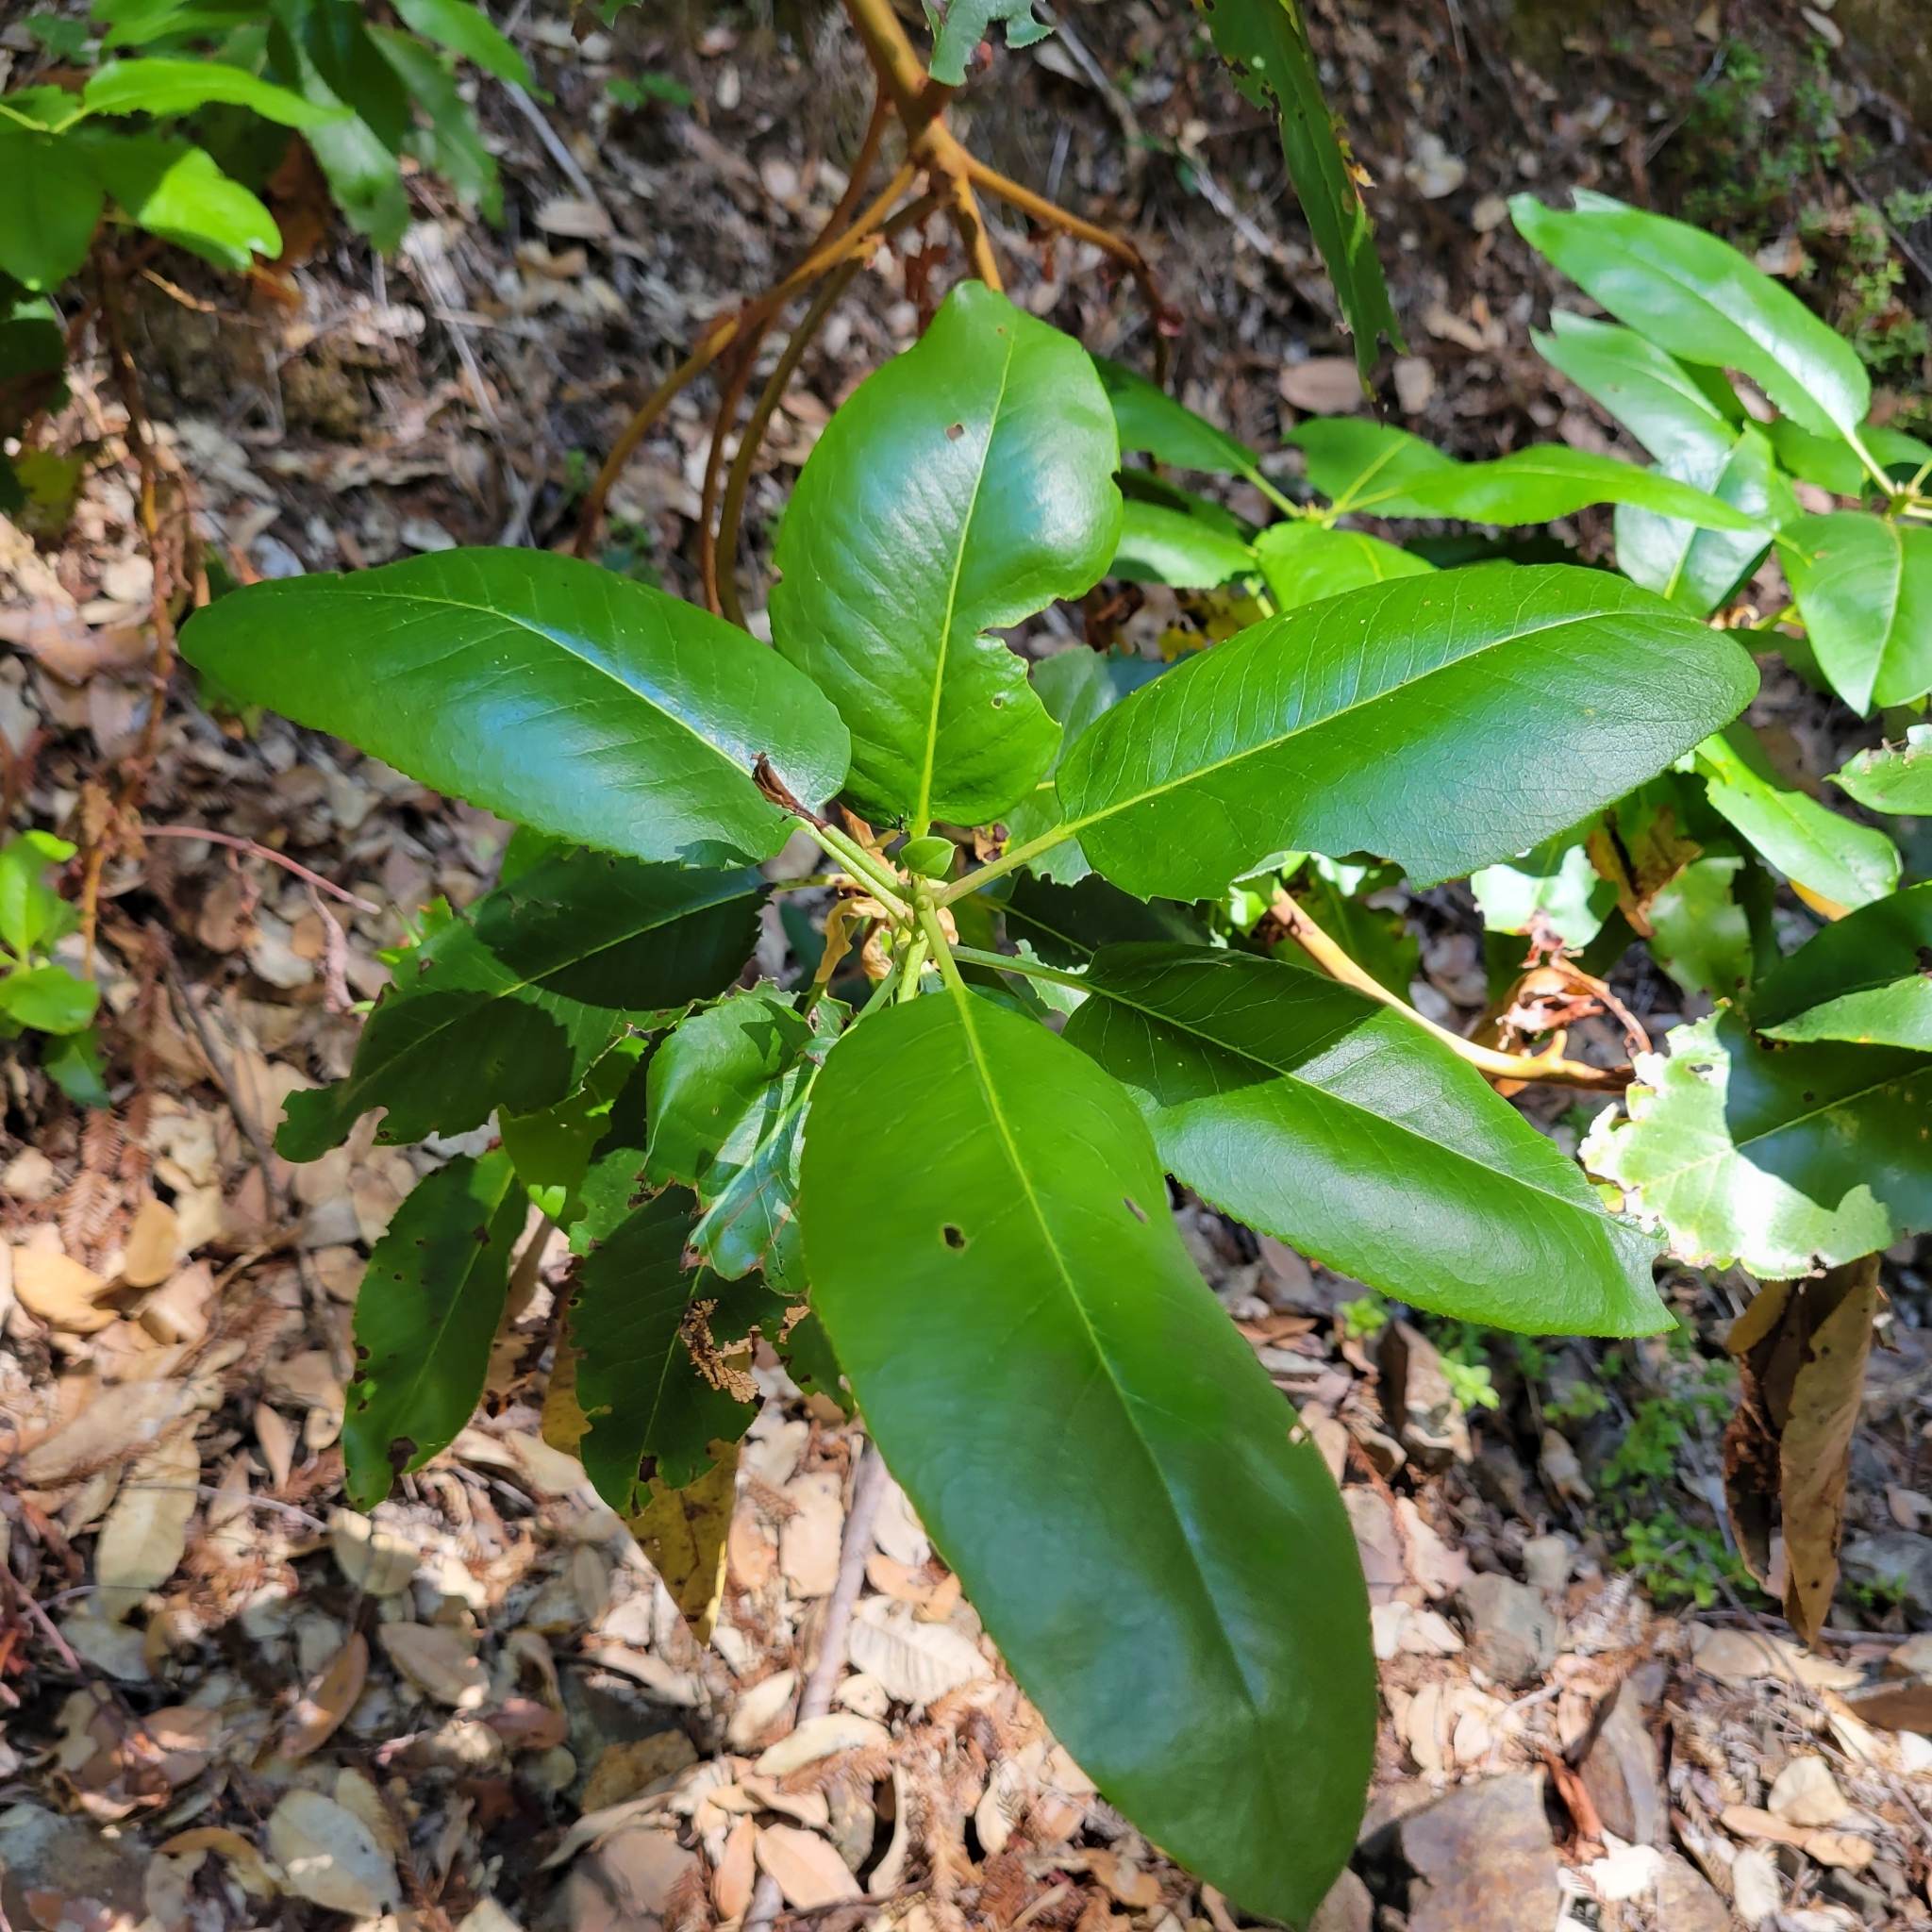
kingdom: Plantae
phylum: Tracheophyta
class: Magnoliopsida
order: Ericales
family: Ericaceae
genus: Arbutus
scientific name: Arbutus menziesii
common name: Pacific madrone
